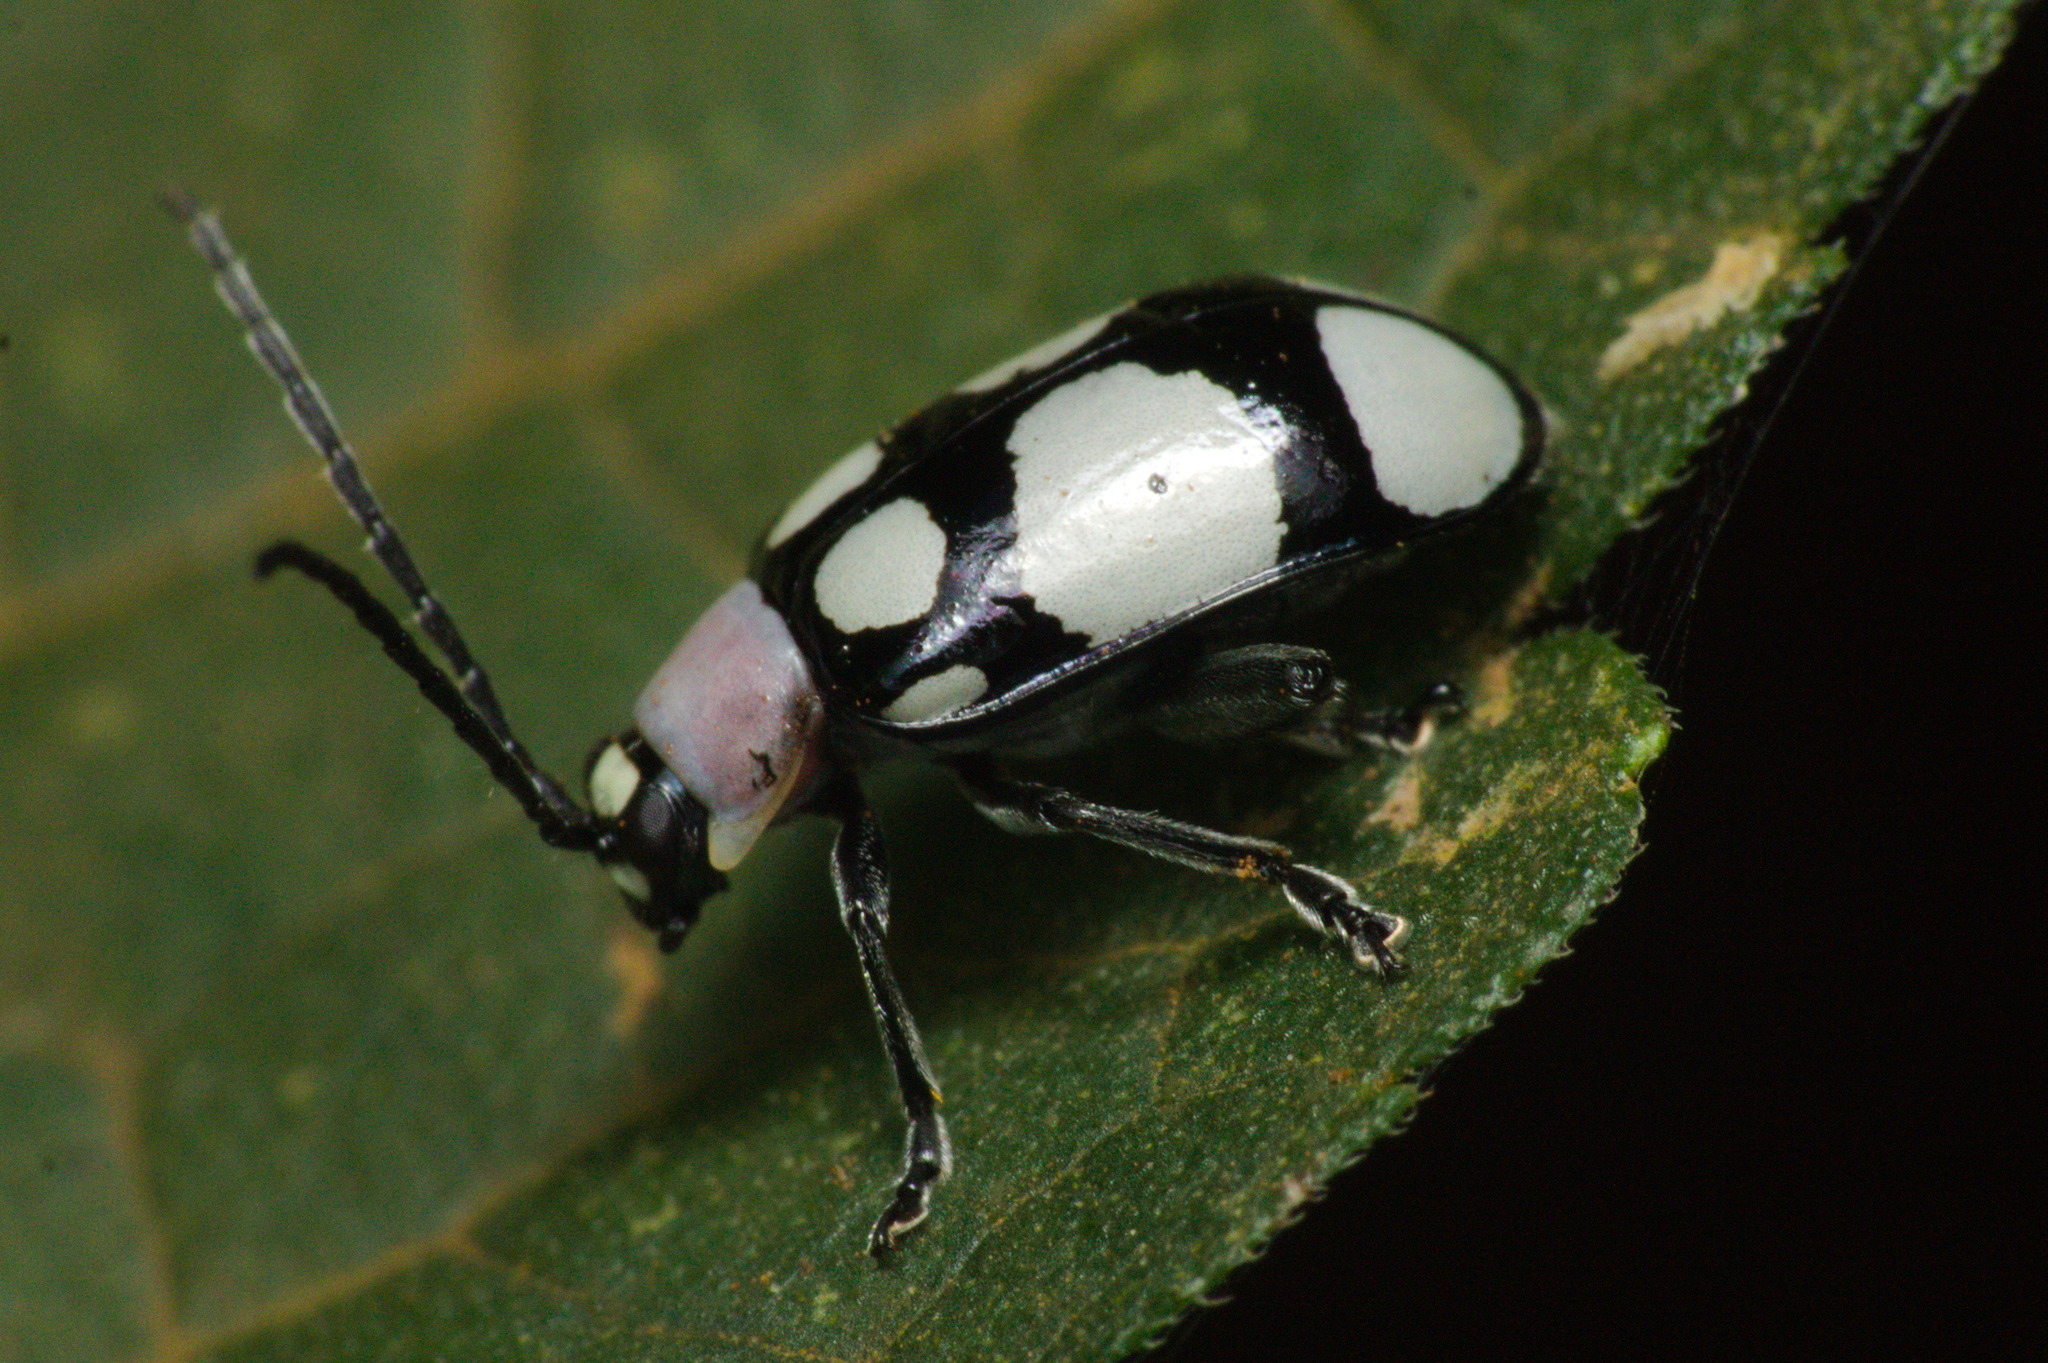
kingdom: Animalia
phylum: Arthropoda
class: Insecta
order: Coleoptera
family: Chrysomelidae
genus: Omophoita
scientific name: Omophoita
